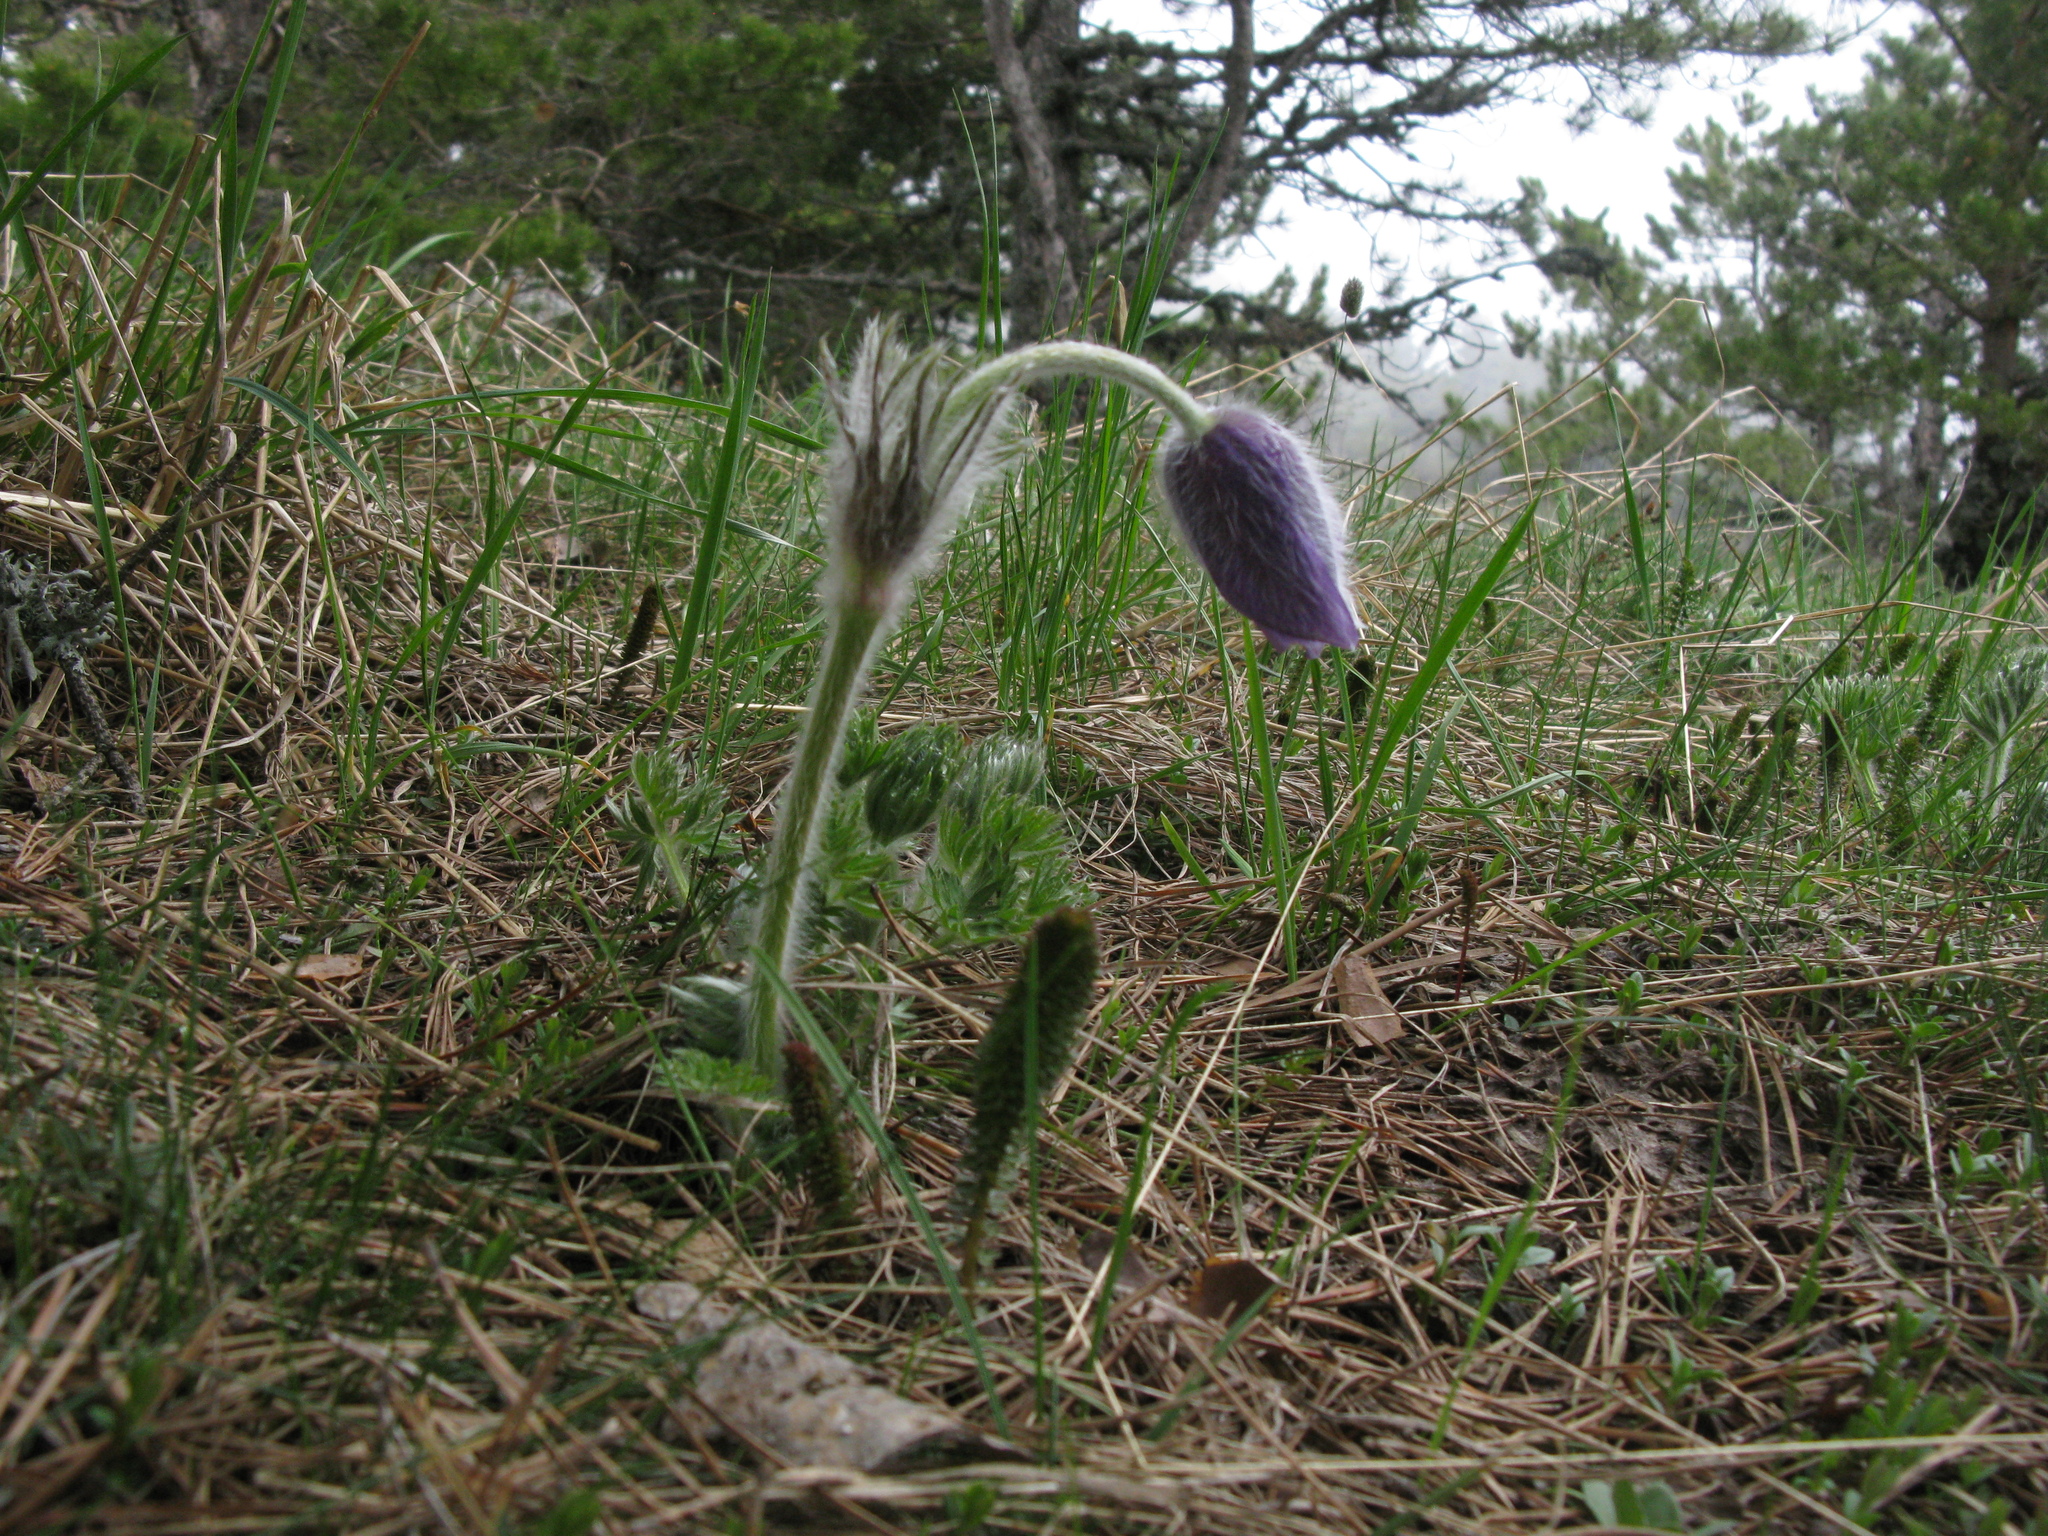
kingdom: Plantae
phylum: Tracheophyta
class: Magnoliopsida
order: Ranunculales
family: Ranunculaceae
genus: Pulsatilla
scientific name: Pulsatilla halleri
